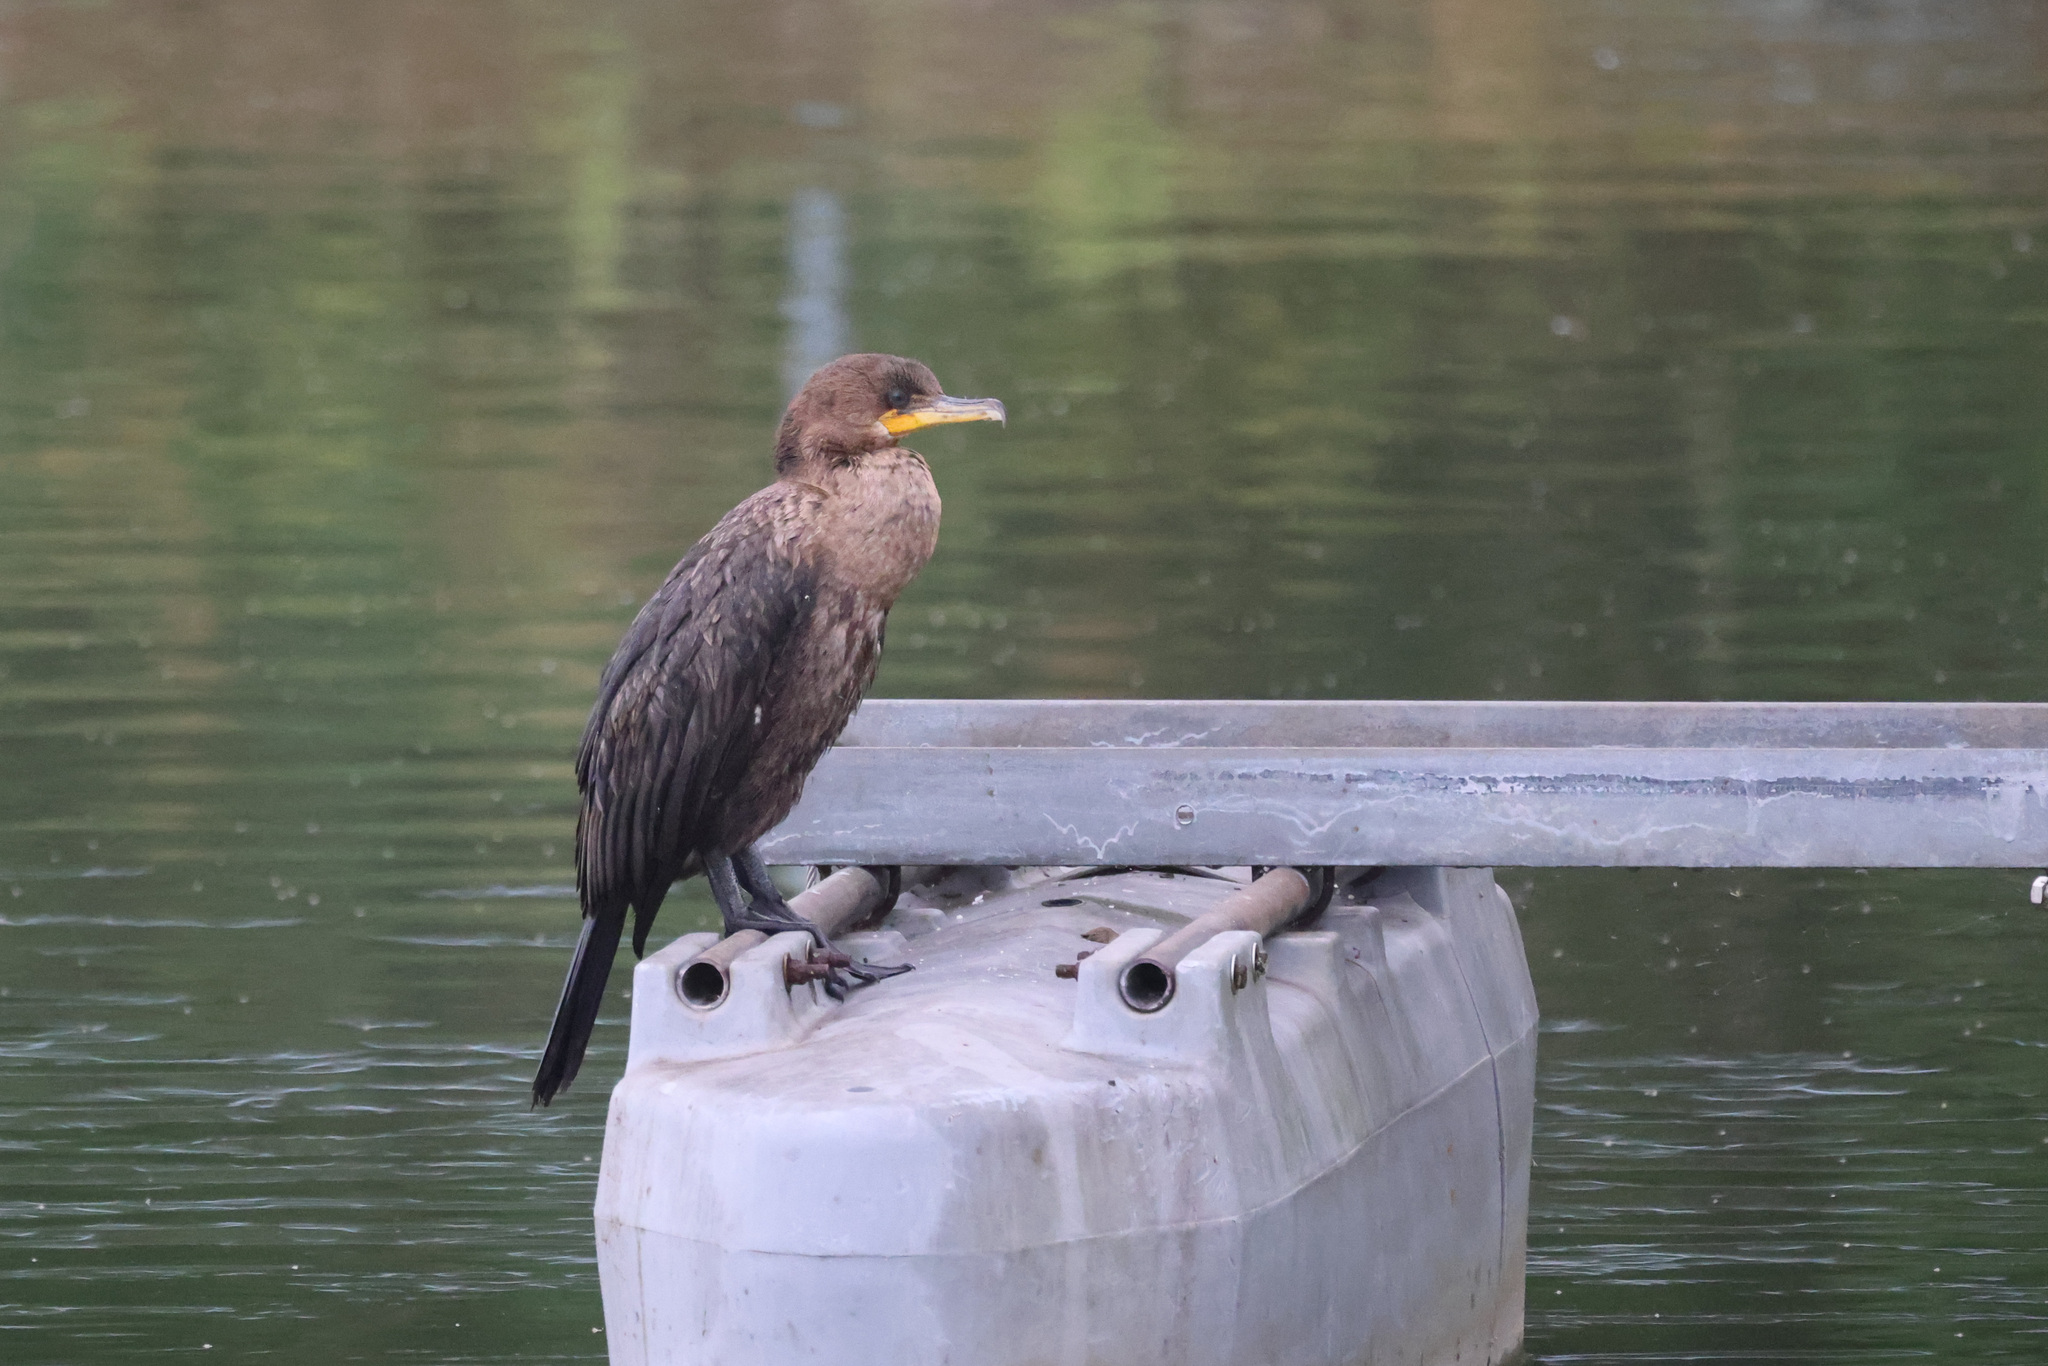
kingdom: Animalia
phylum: Chordata
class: Aves
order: Suliformes
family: Phalacrocoracidae
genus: Phalacrocorax
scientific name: Phalacrocorax auritus
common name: Double-crested cormorant
